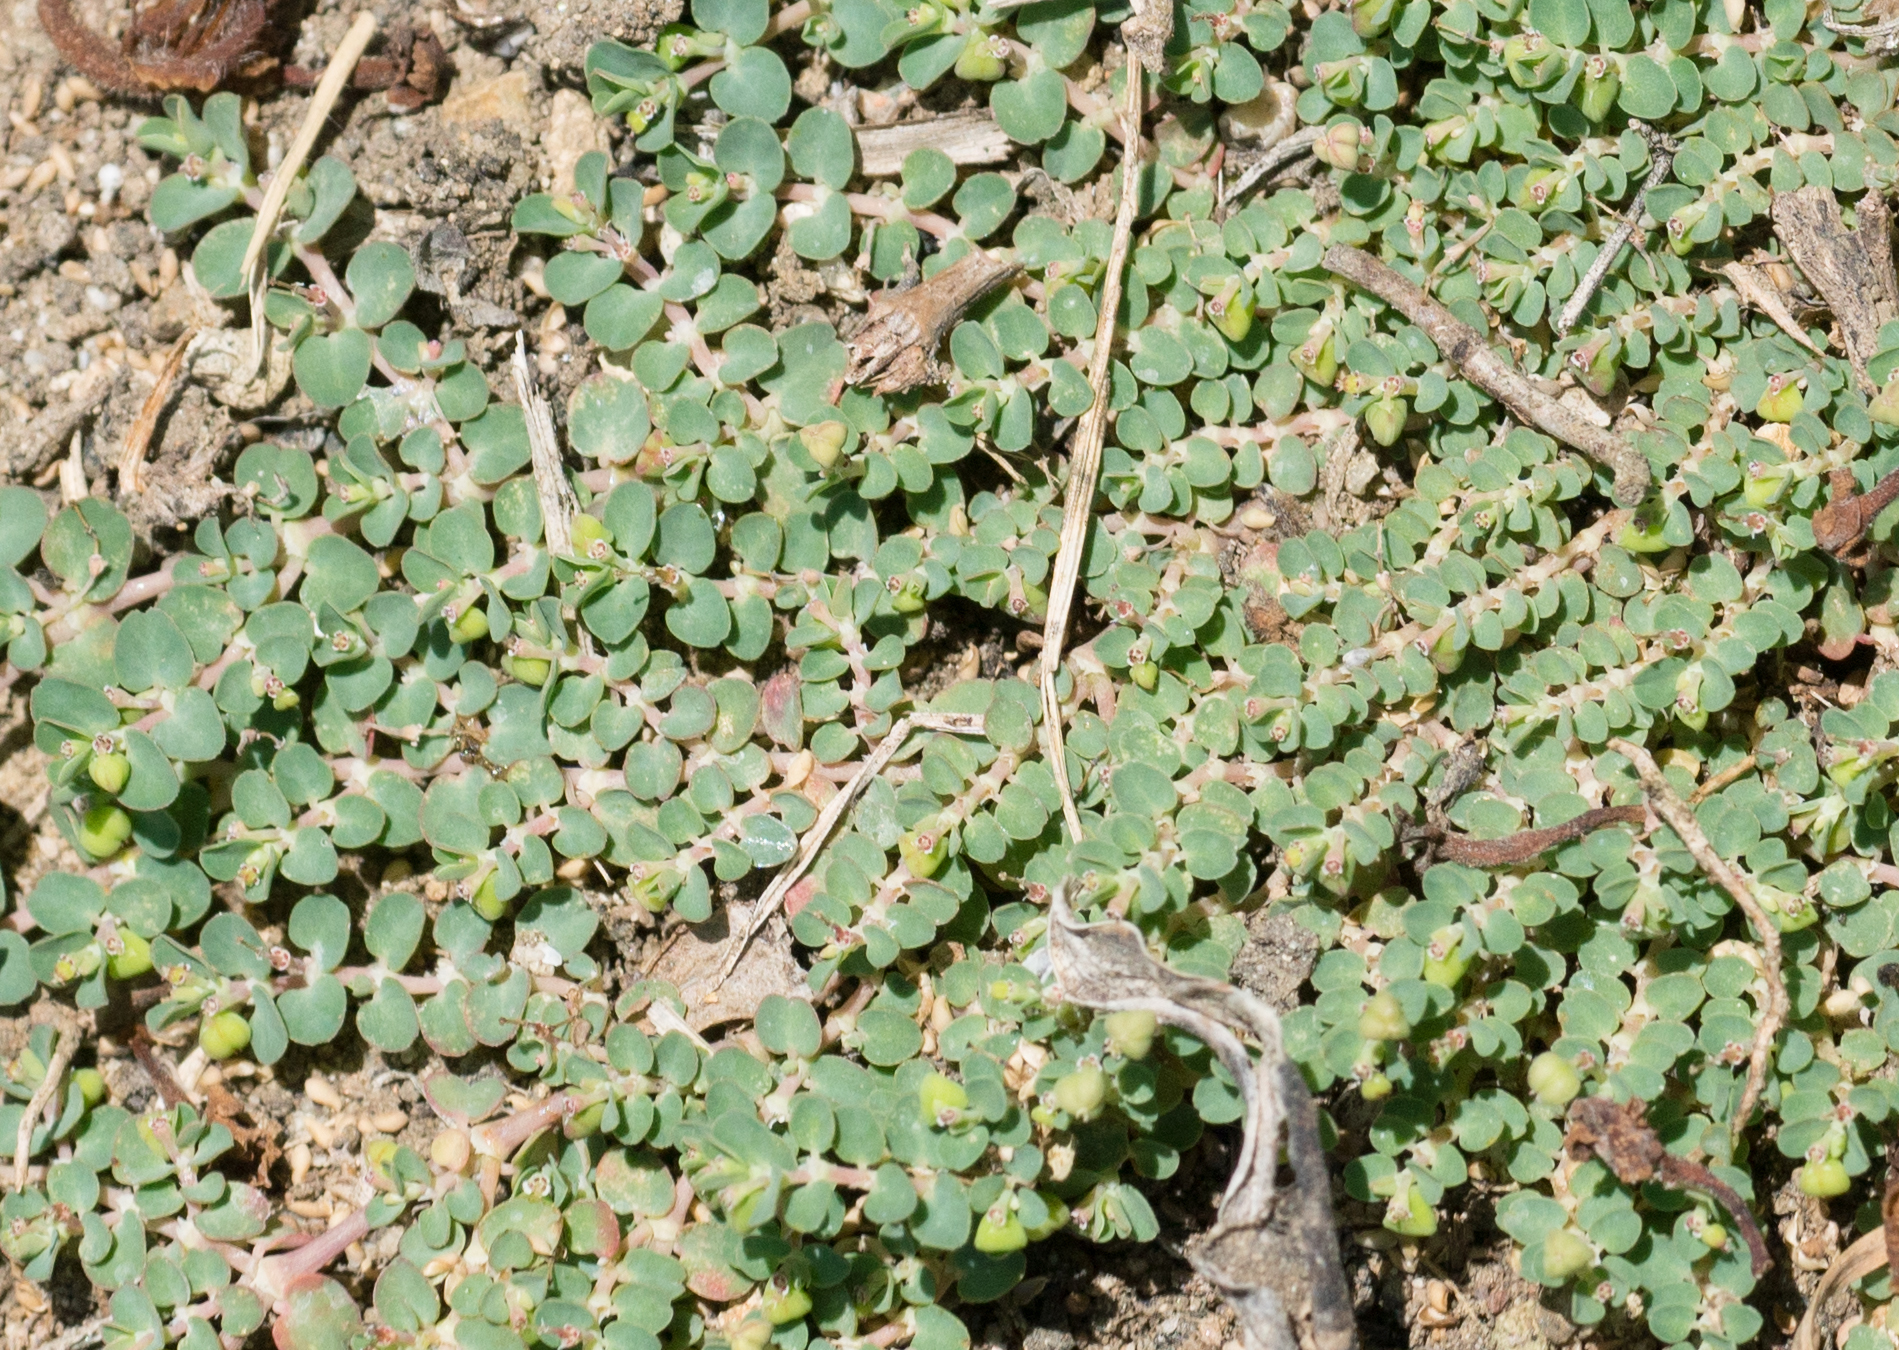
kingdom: Plantae
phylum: Tracheophyta
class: Magnoliopsida
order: Malpighiales
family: Euphorbiaceae
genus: Euphorbia
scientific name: Euphorbia serpens
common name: Matted sandmat
